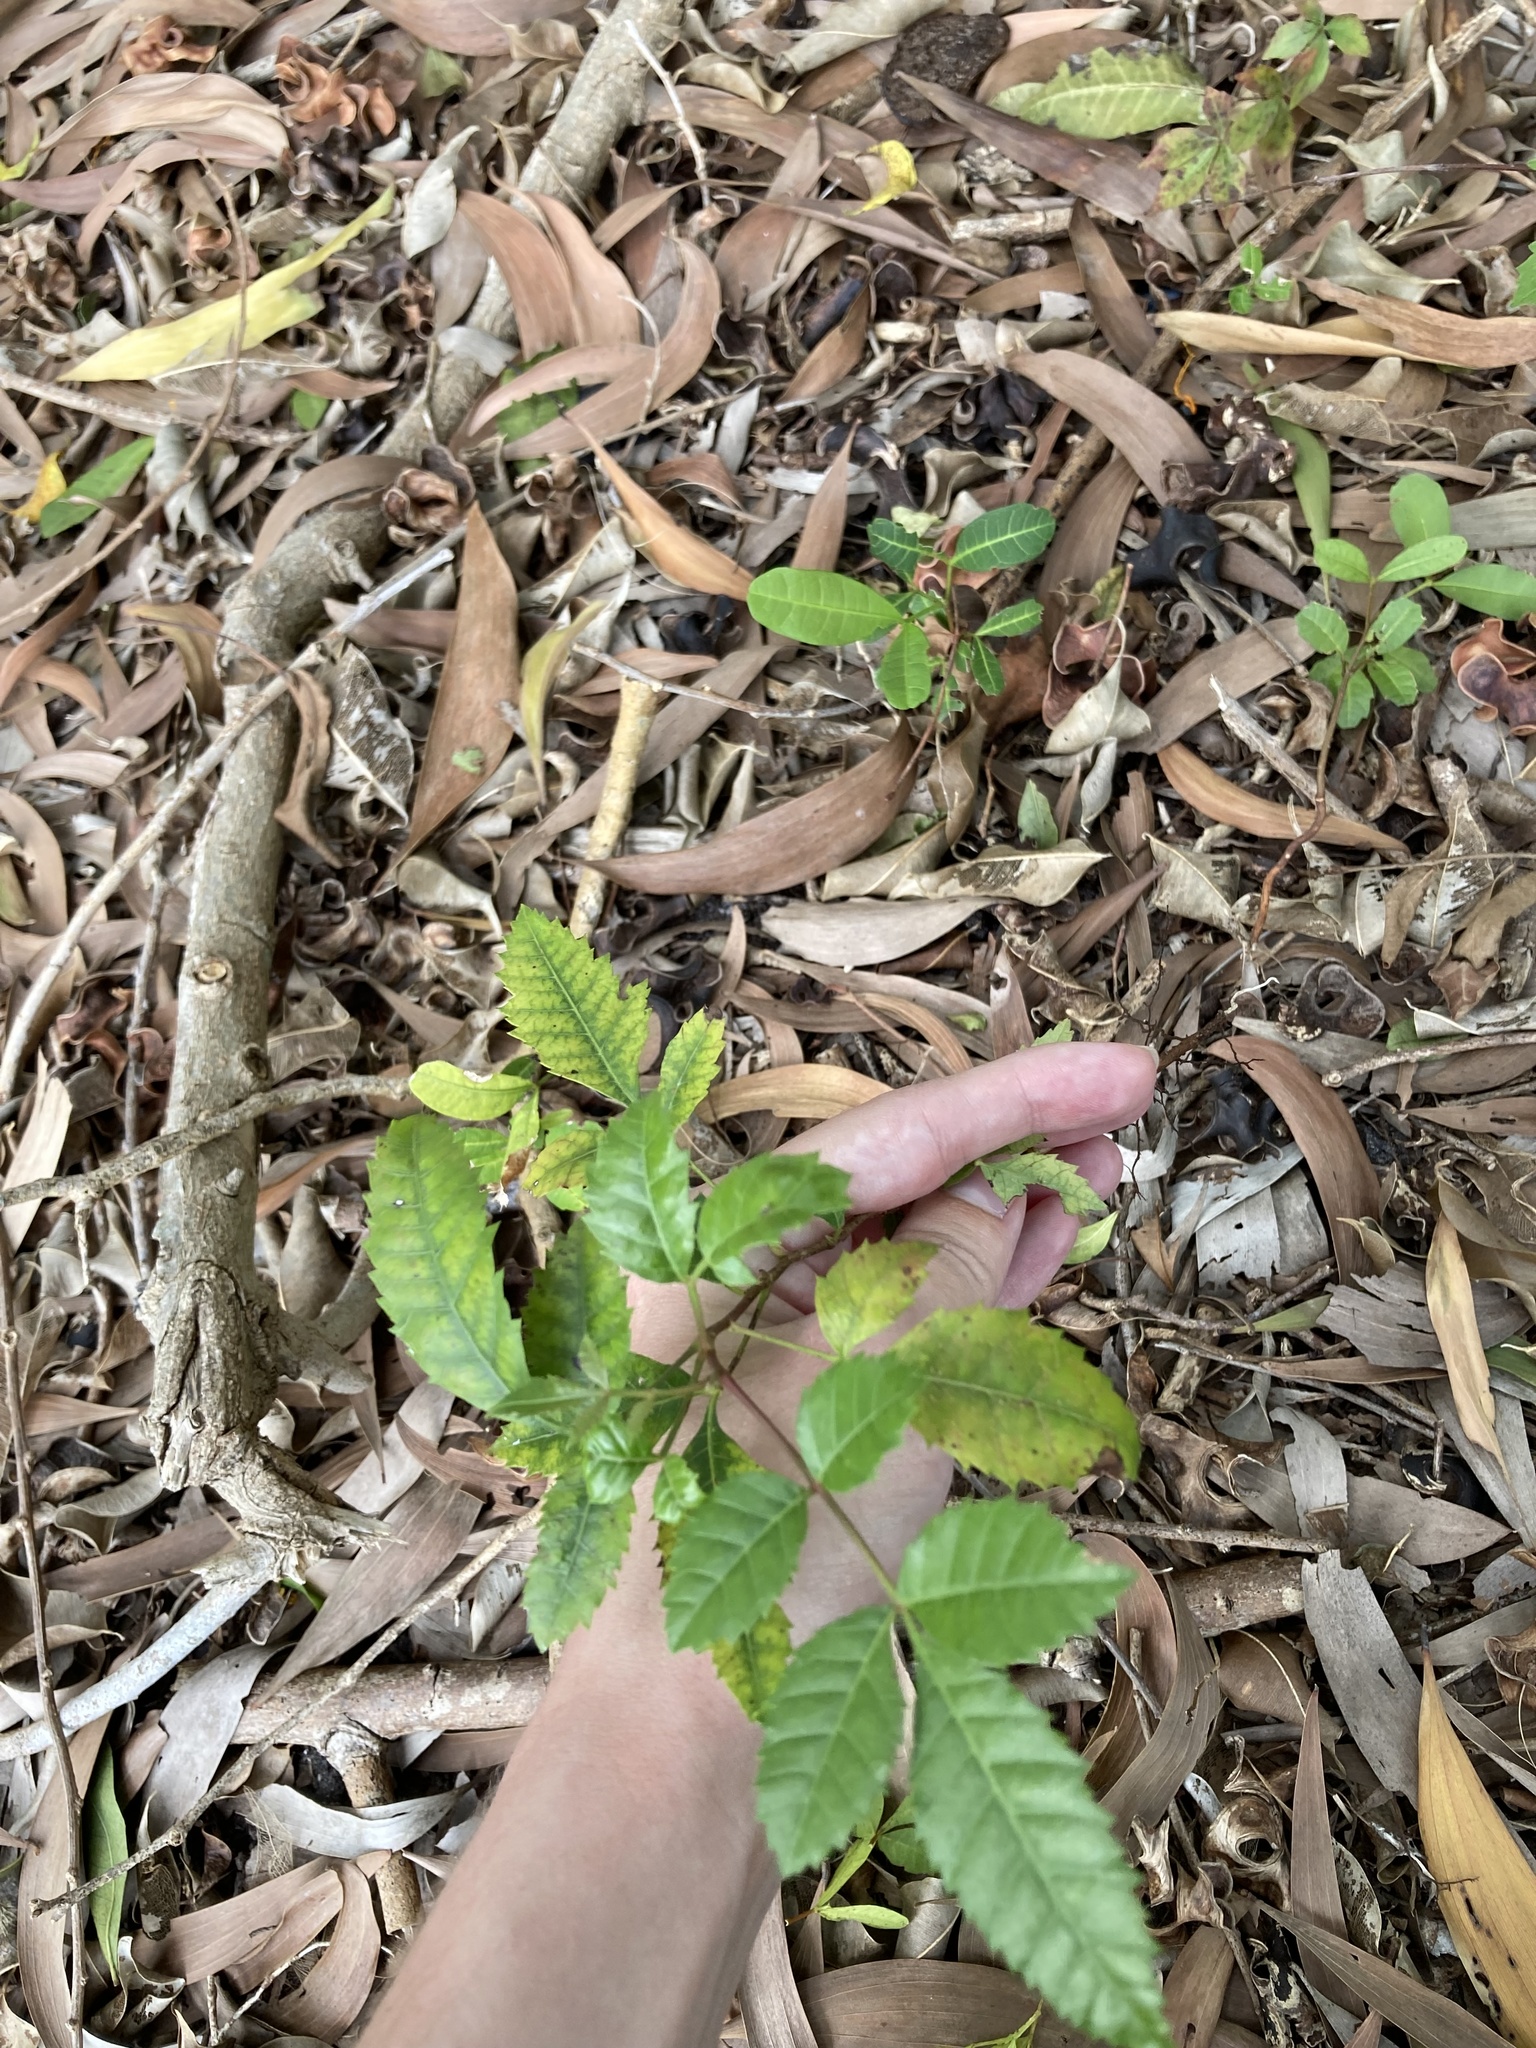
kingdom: Plantae
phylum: Tracheophyta
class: Magnoliopsida
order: Sapindales
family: Anacardiaceae
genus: Schinus
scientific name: Schinus terebinthifolia
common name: Brazilian peppertree
